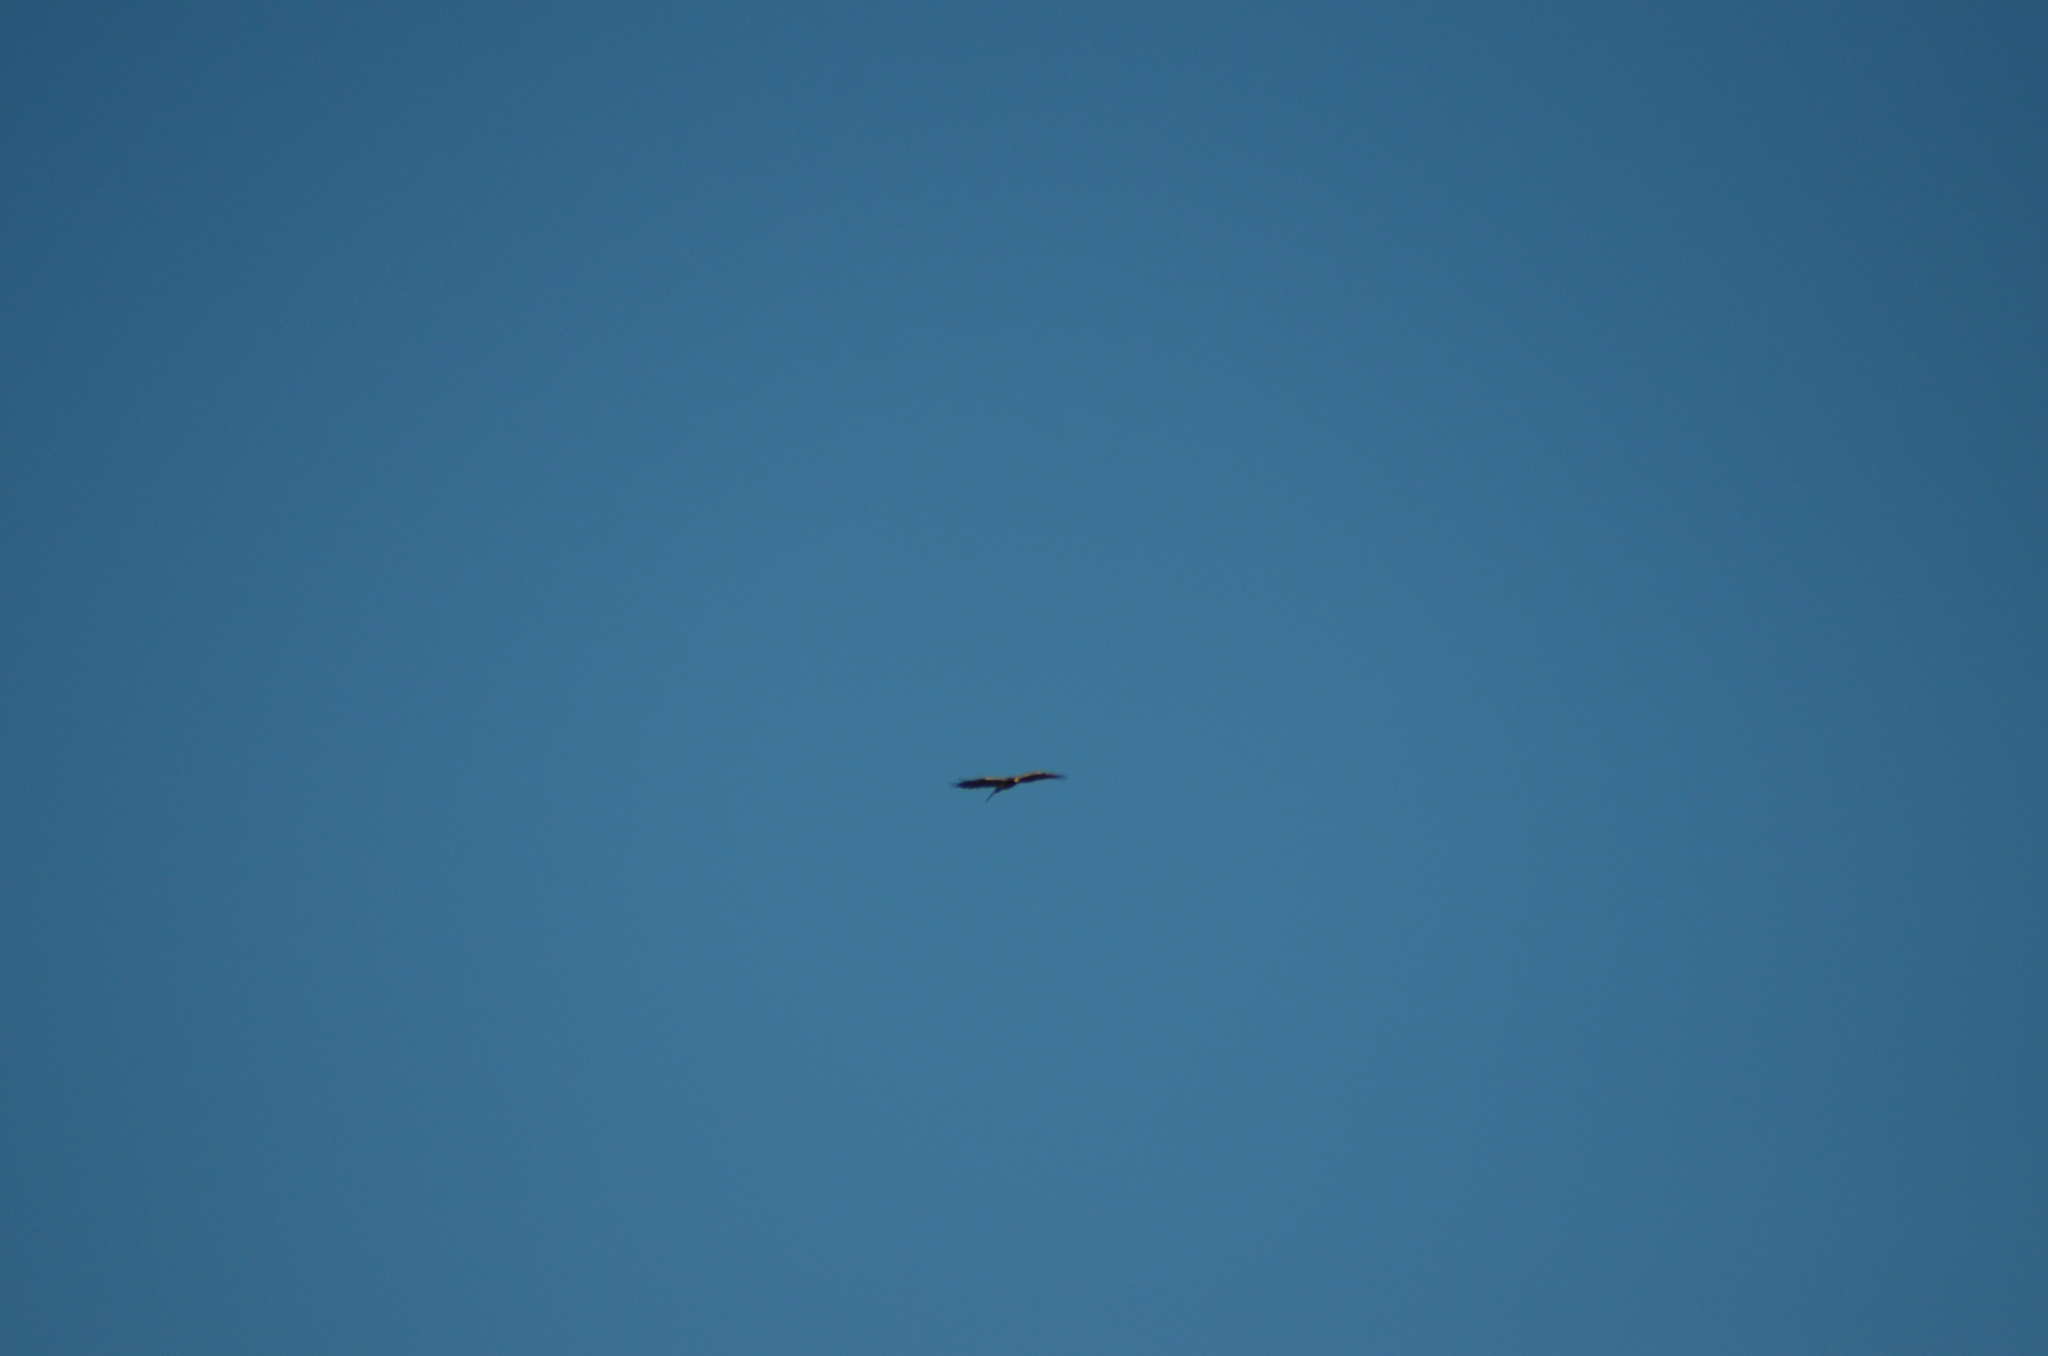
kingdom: Animalia
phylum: Chordata
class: Aves
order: Accipitriformes
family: Accipitridae
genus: Circaetus
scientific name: Circaetus gallicus
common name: Short-toed snake eagle
